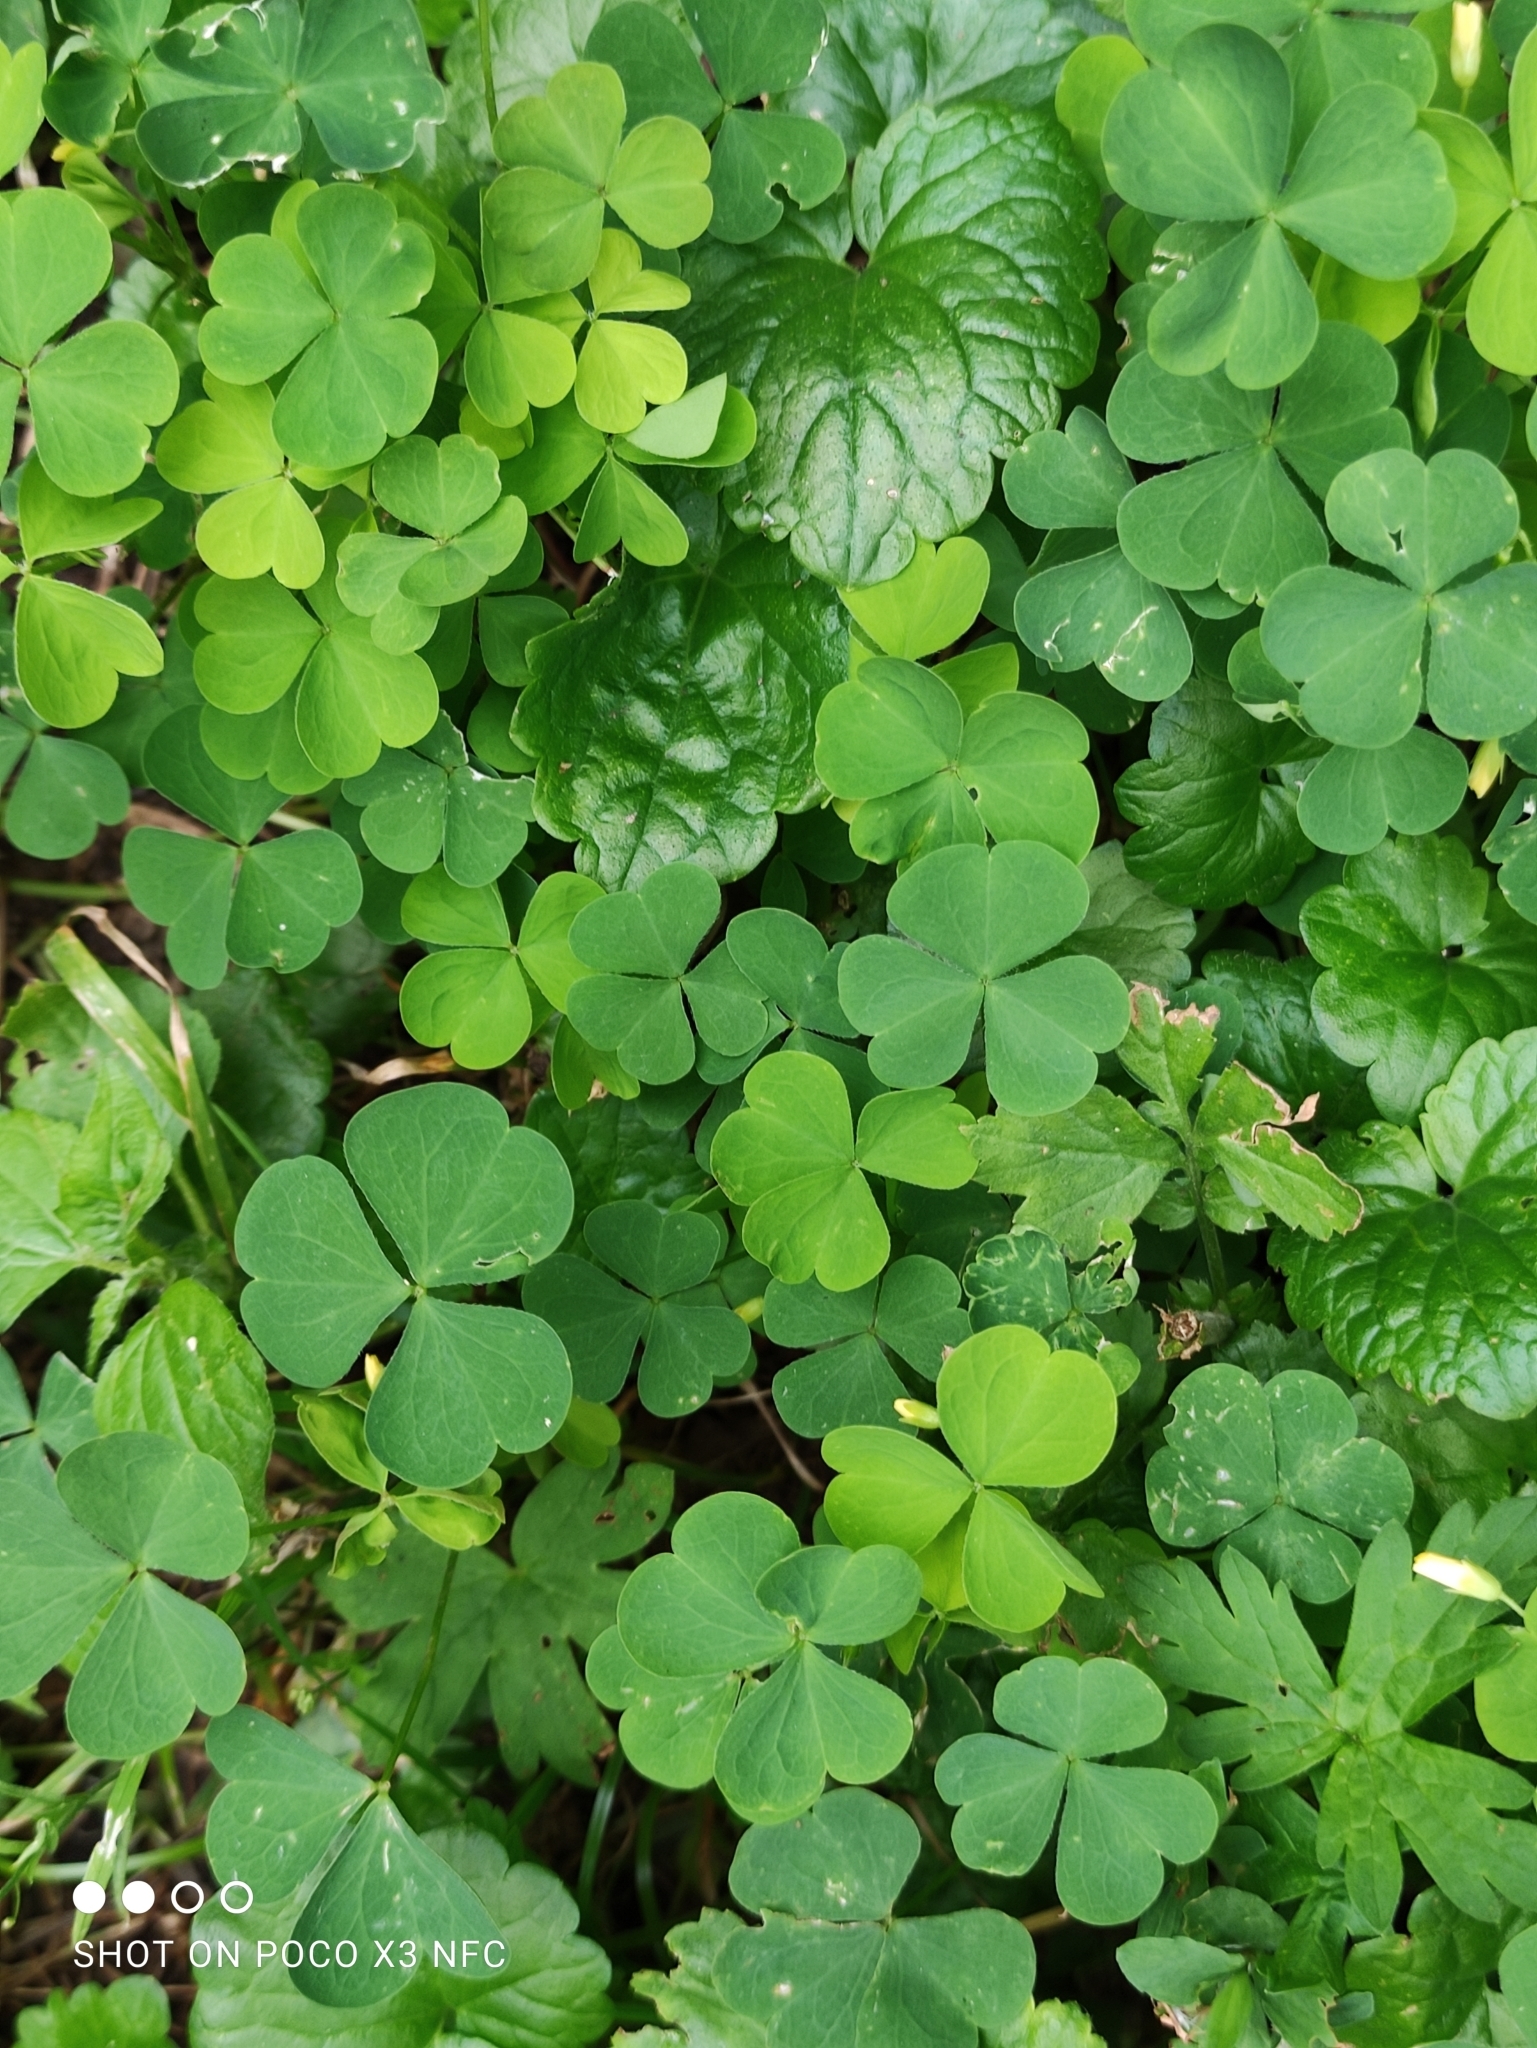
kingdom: Plantae
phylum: Tracheophyta
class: Magnoliopsida
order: Oxalidales
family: Oxalidaceae
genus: Oxalis
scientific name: Oxalis acetosella
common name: Wood-sorrel
